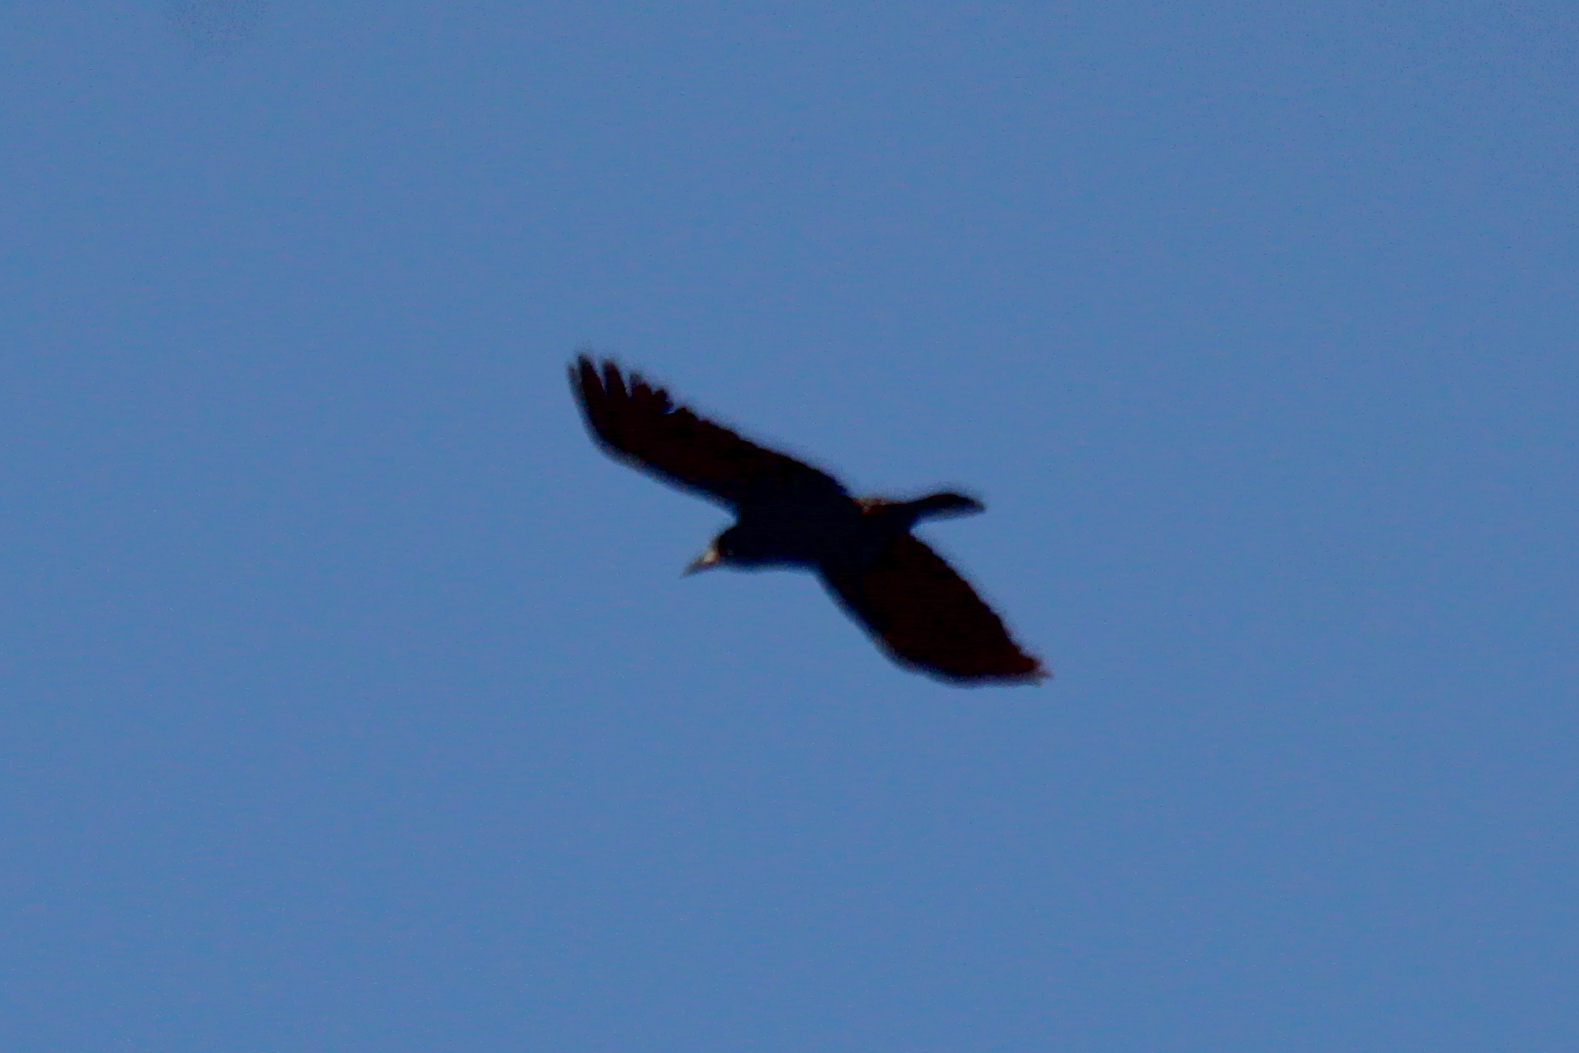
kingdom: Animalia
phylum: Chordata
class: Aves
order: Passeriformes
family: Corvidae
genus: Corvus
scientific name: Corvus frugilegus
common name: Rook
